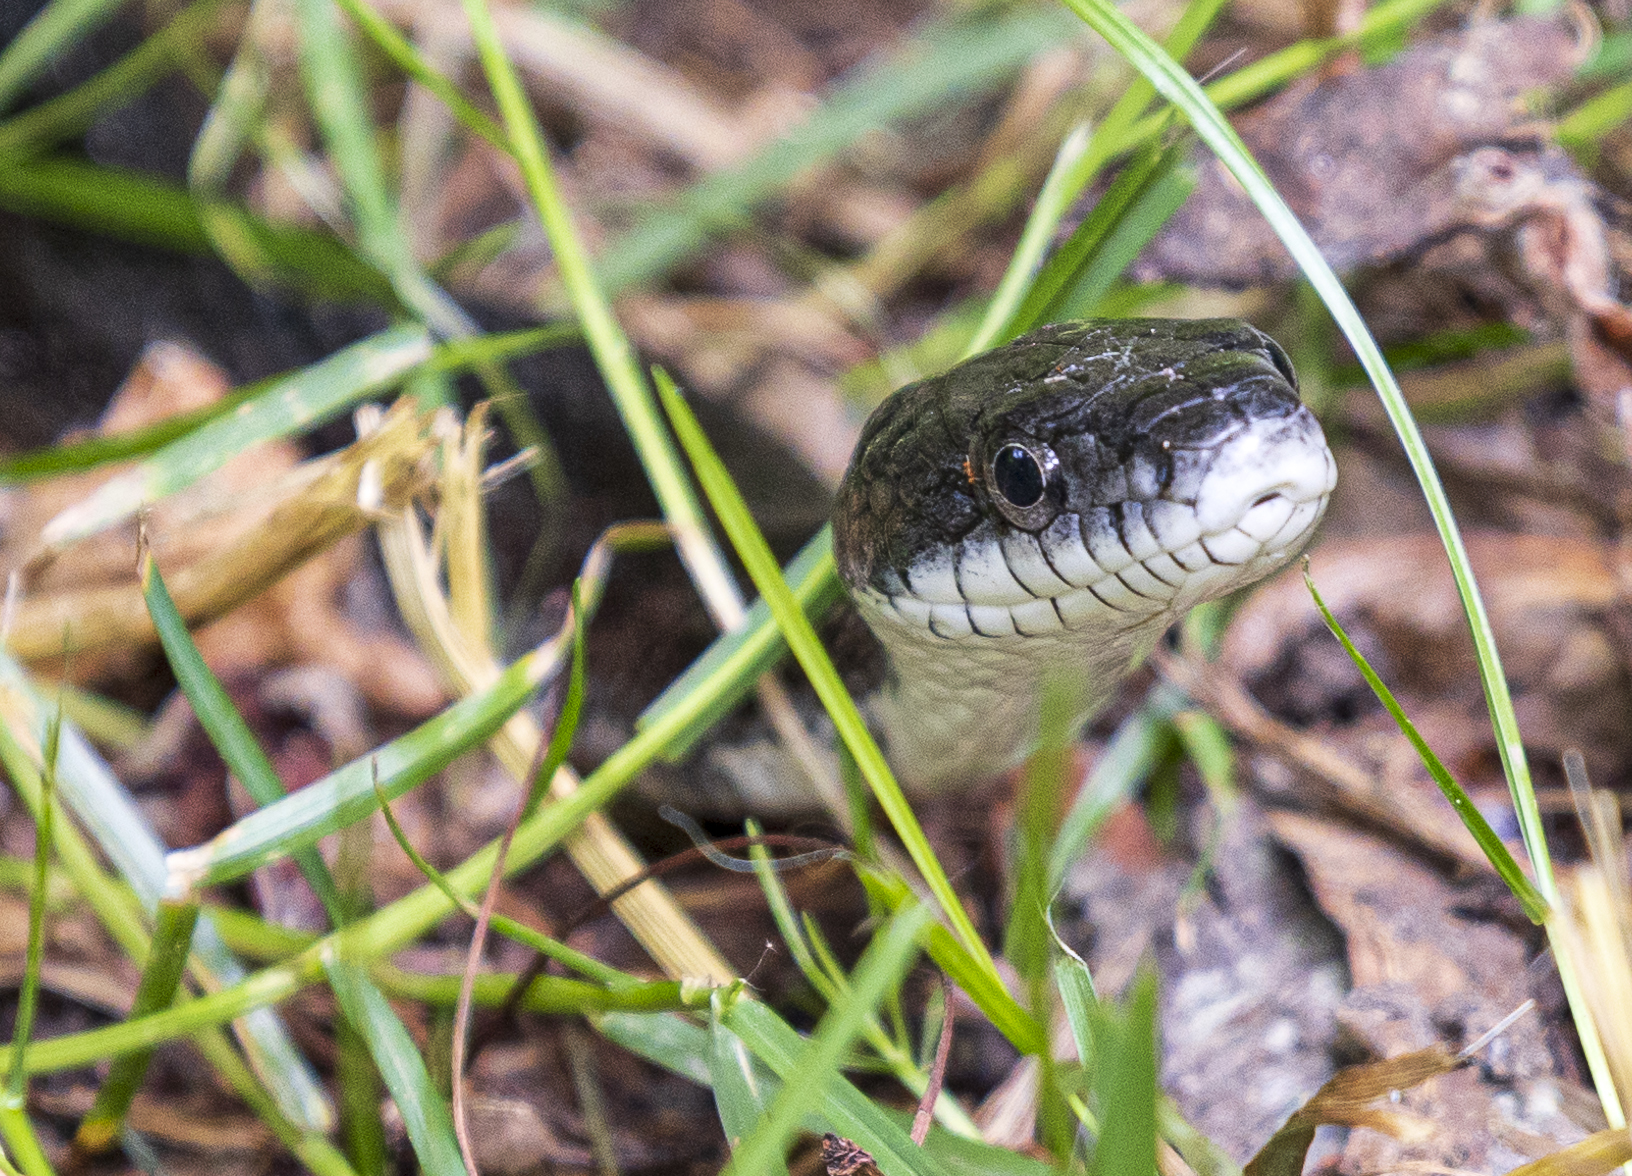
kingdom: Animalia
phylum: Chordata
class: Squamata
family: Colubridae
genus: Pantherophis
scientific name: Pantherophis alleghaniensis
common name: Eastern rat snake
